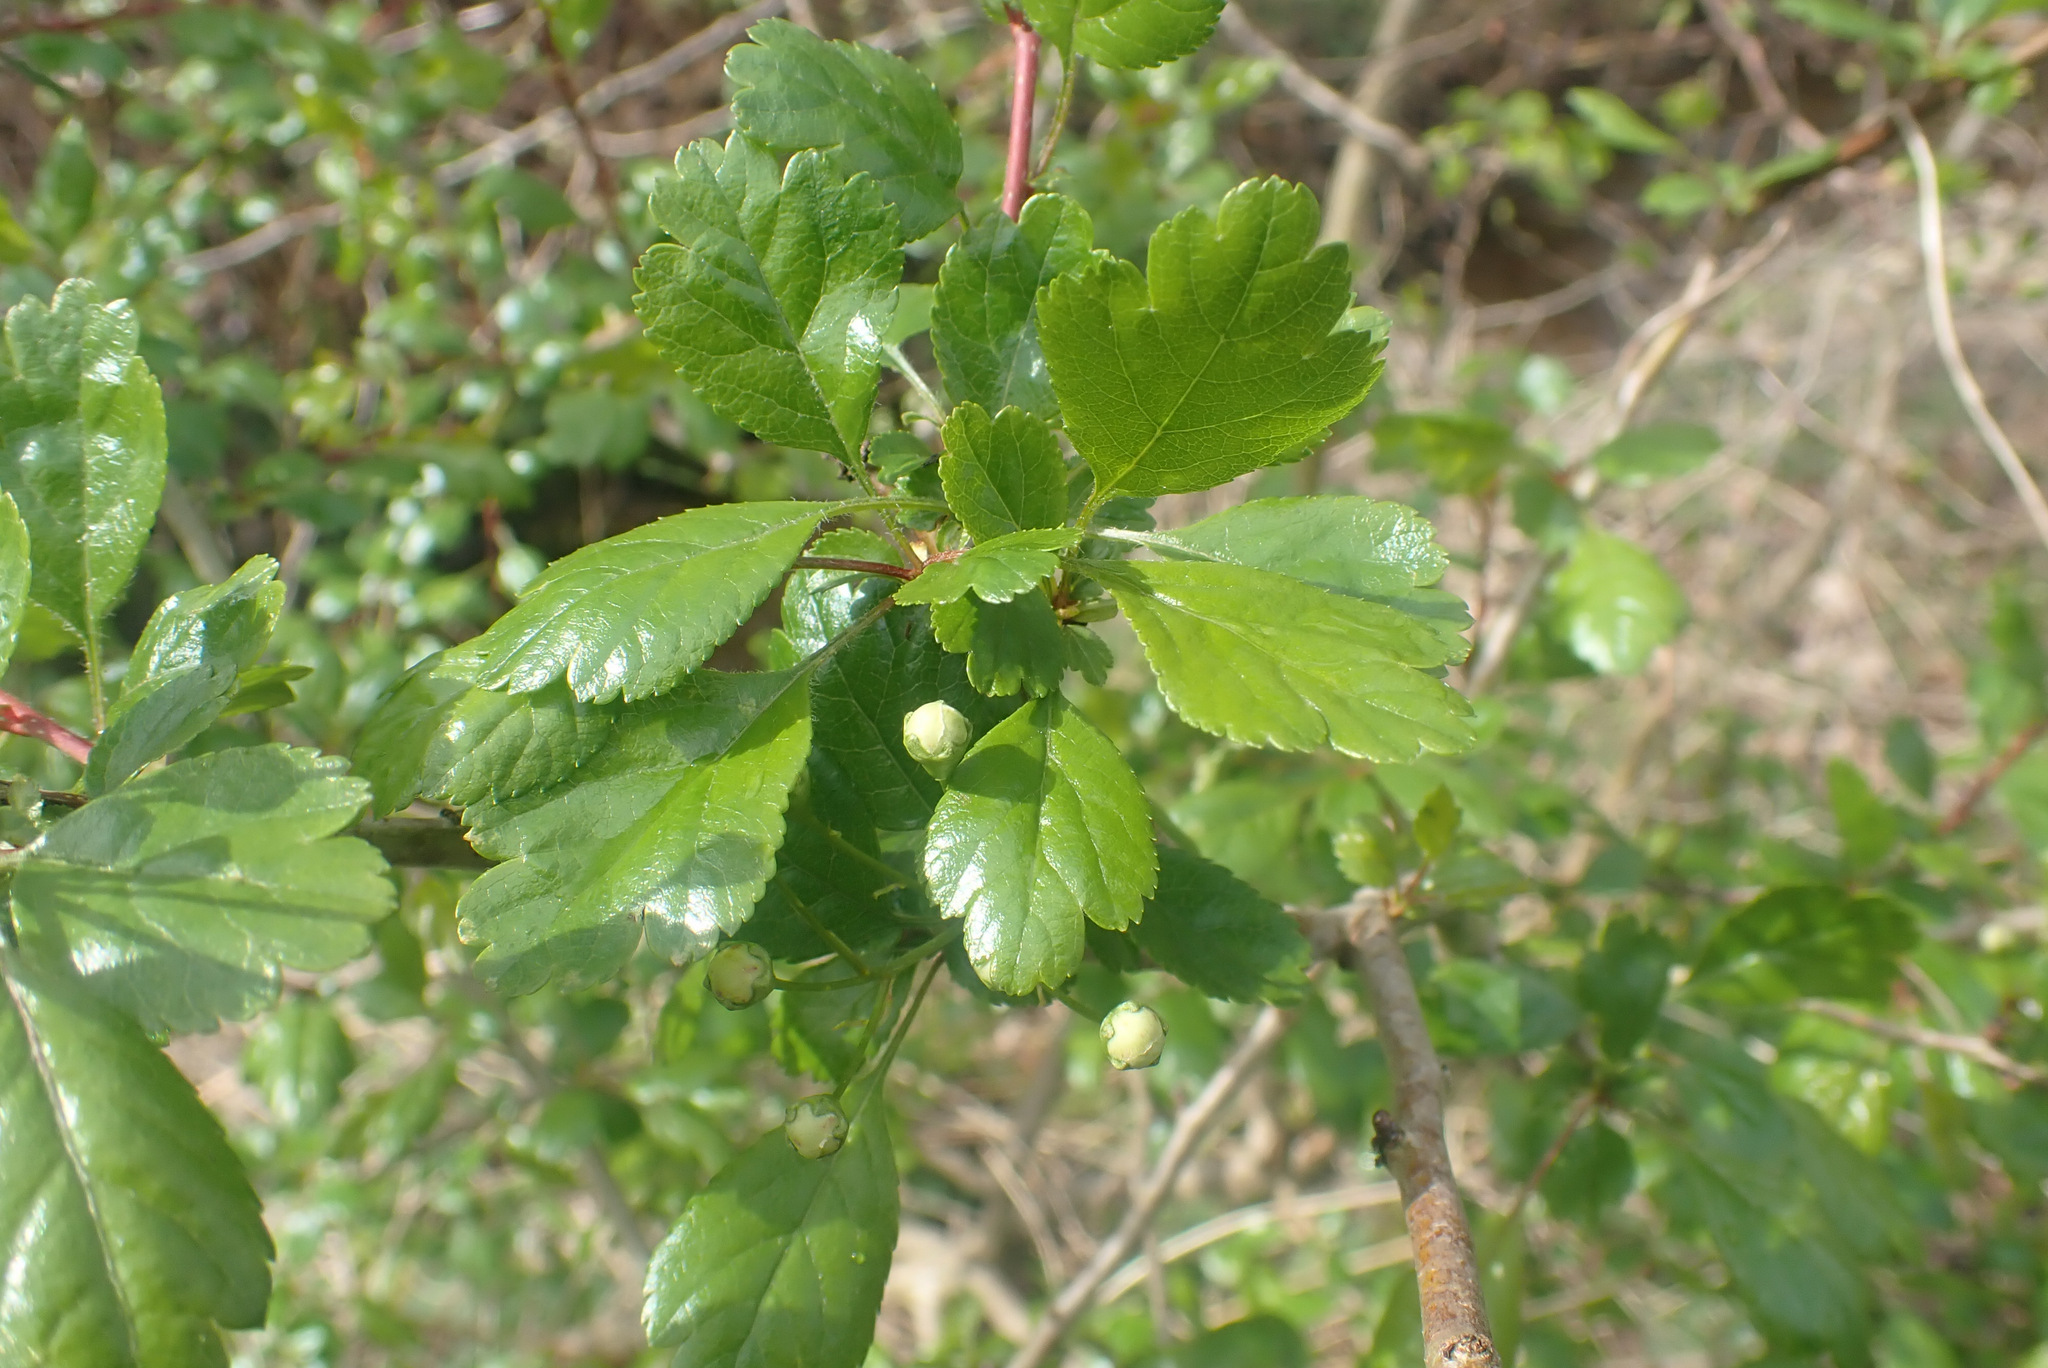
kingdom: Plantae
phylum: Tracheophyta
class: Magnoliopsida
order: Rosales
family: Rosaceae
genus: Crataegus
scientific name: Crataegus laevigata
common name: Midland hawthorn
